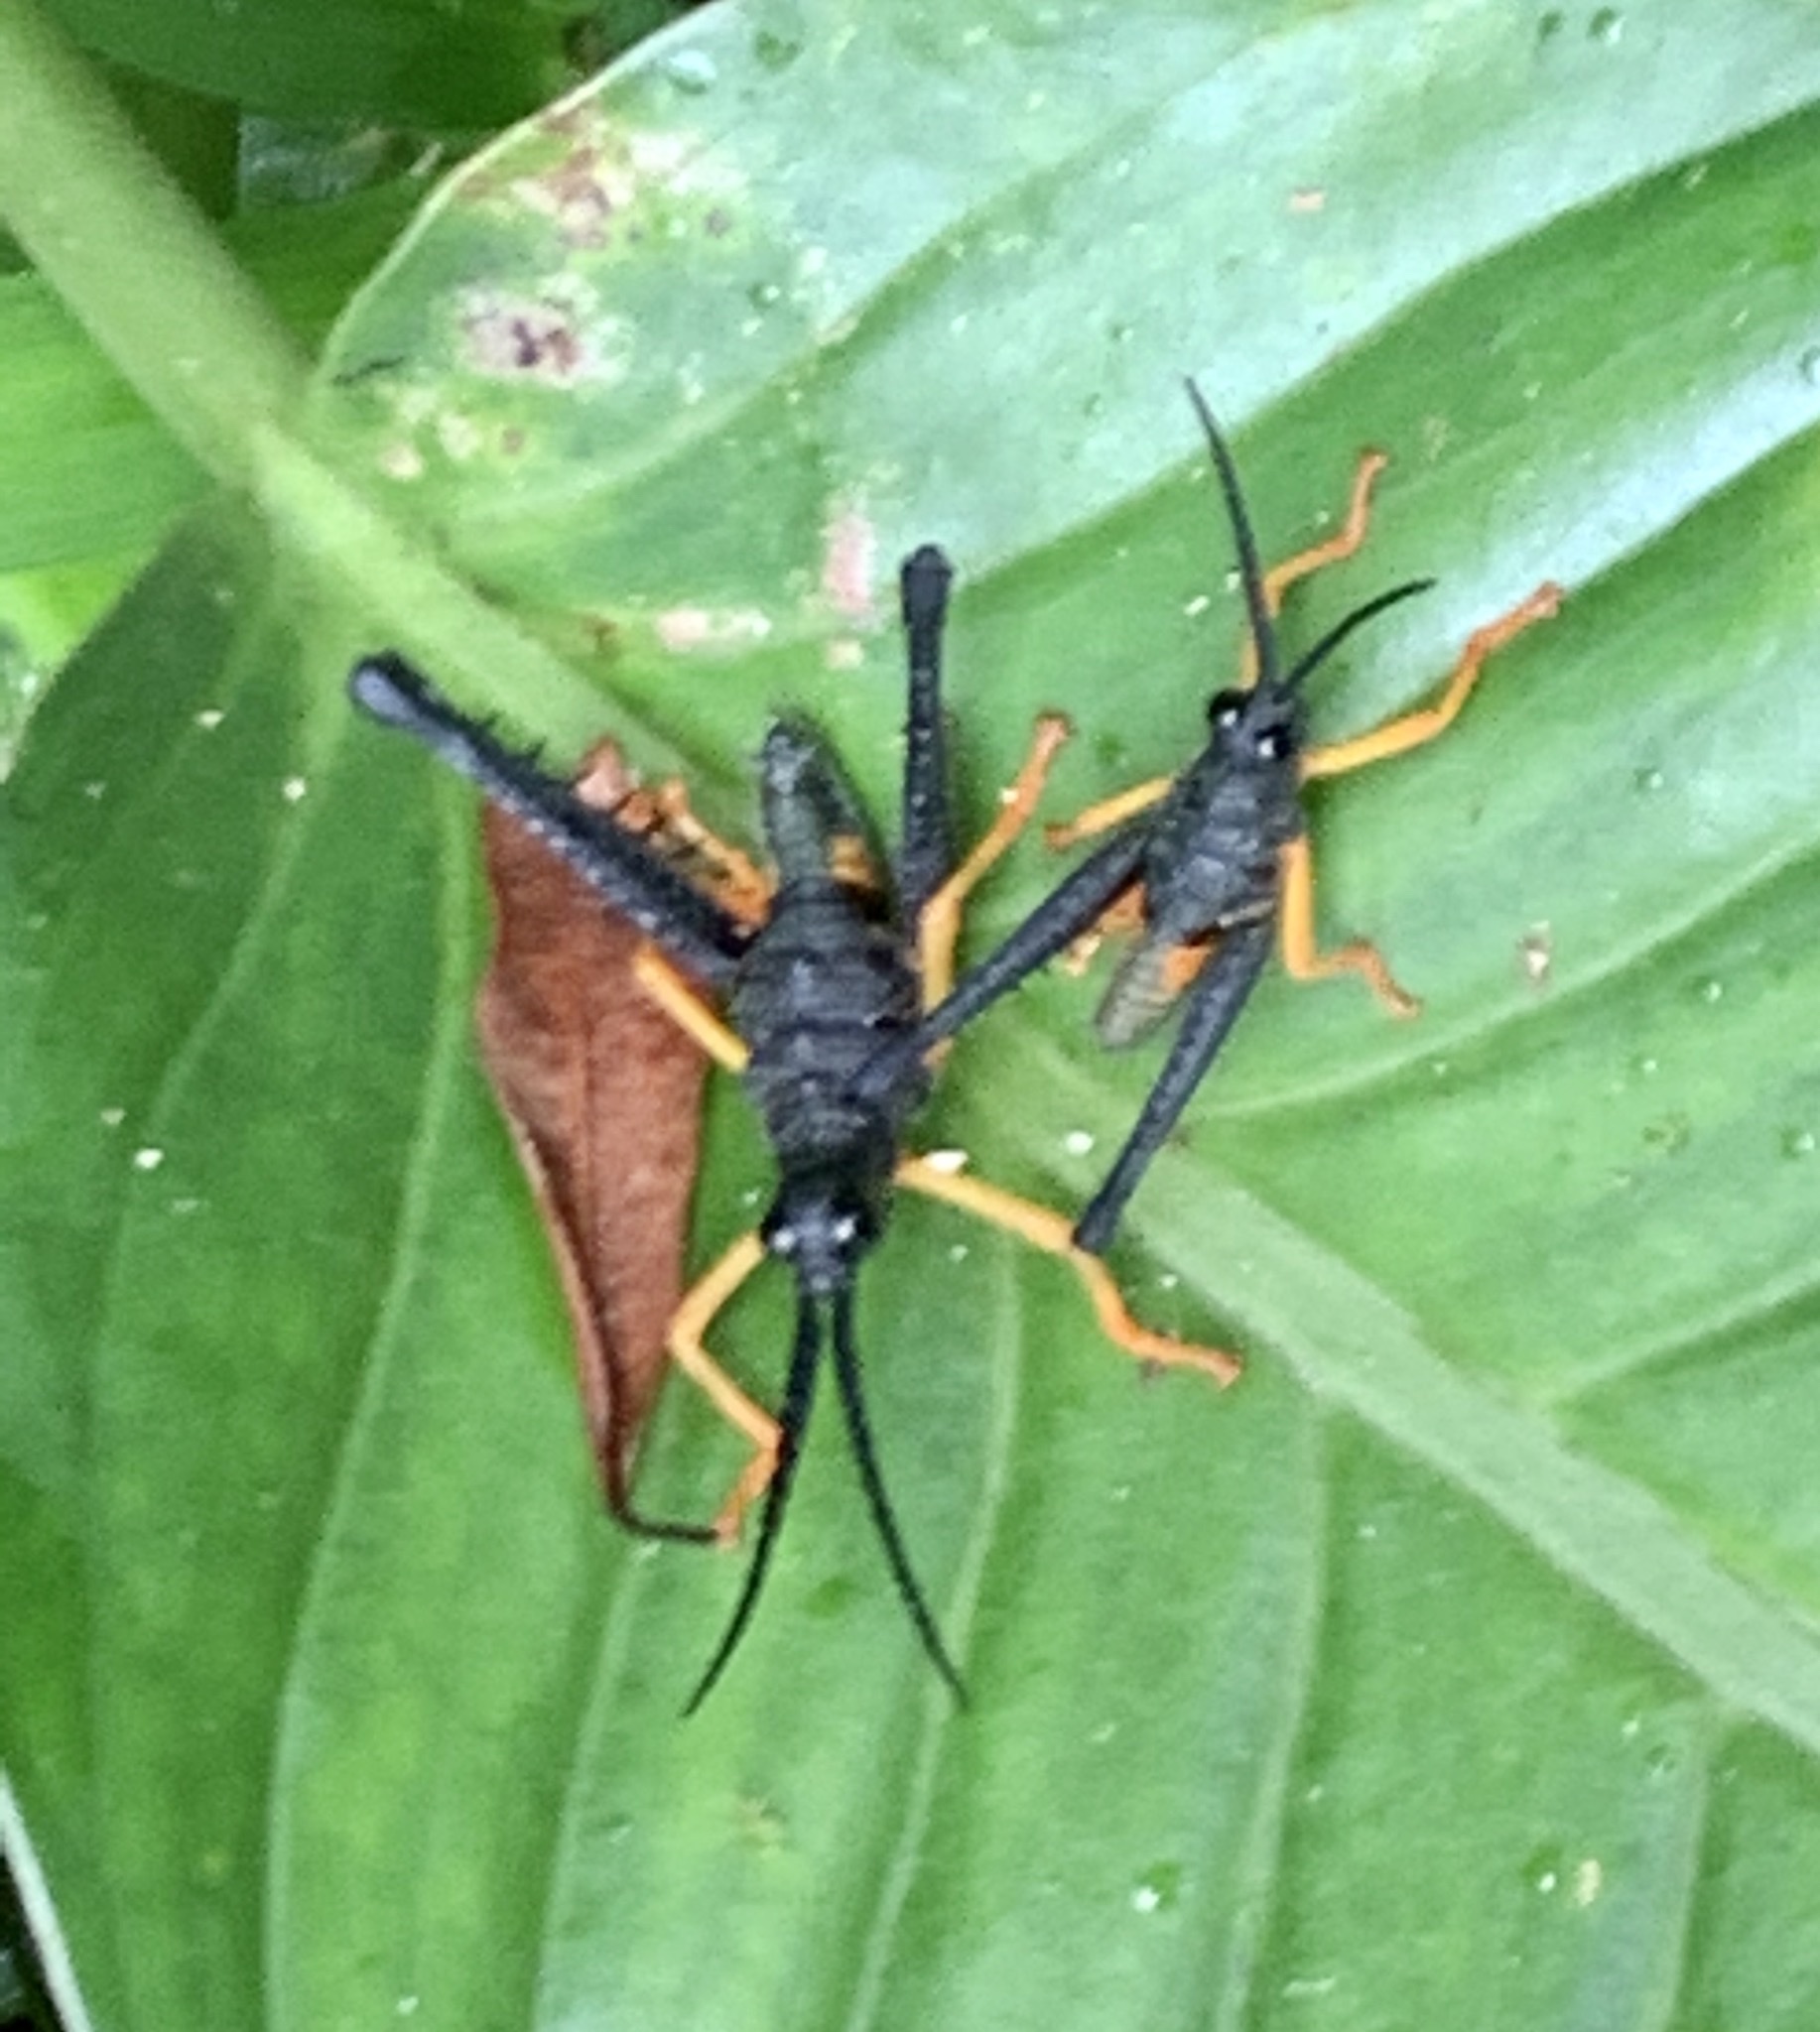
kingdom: Animalia
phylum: Arthropoda
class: Insecta
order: Orthoptera
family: Acrididae
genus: Piezops
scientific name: Piezops ensicornis
